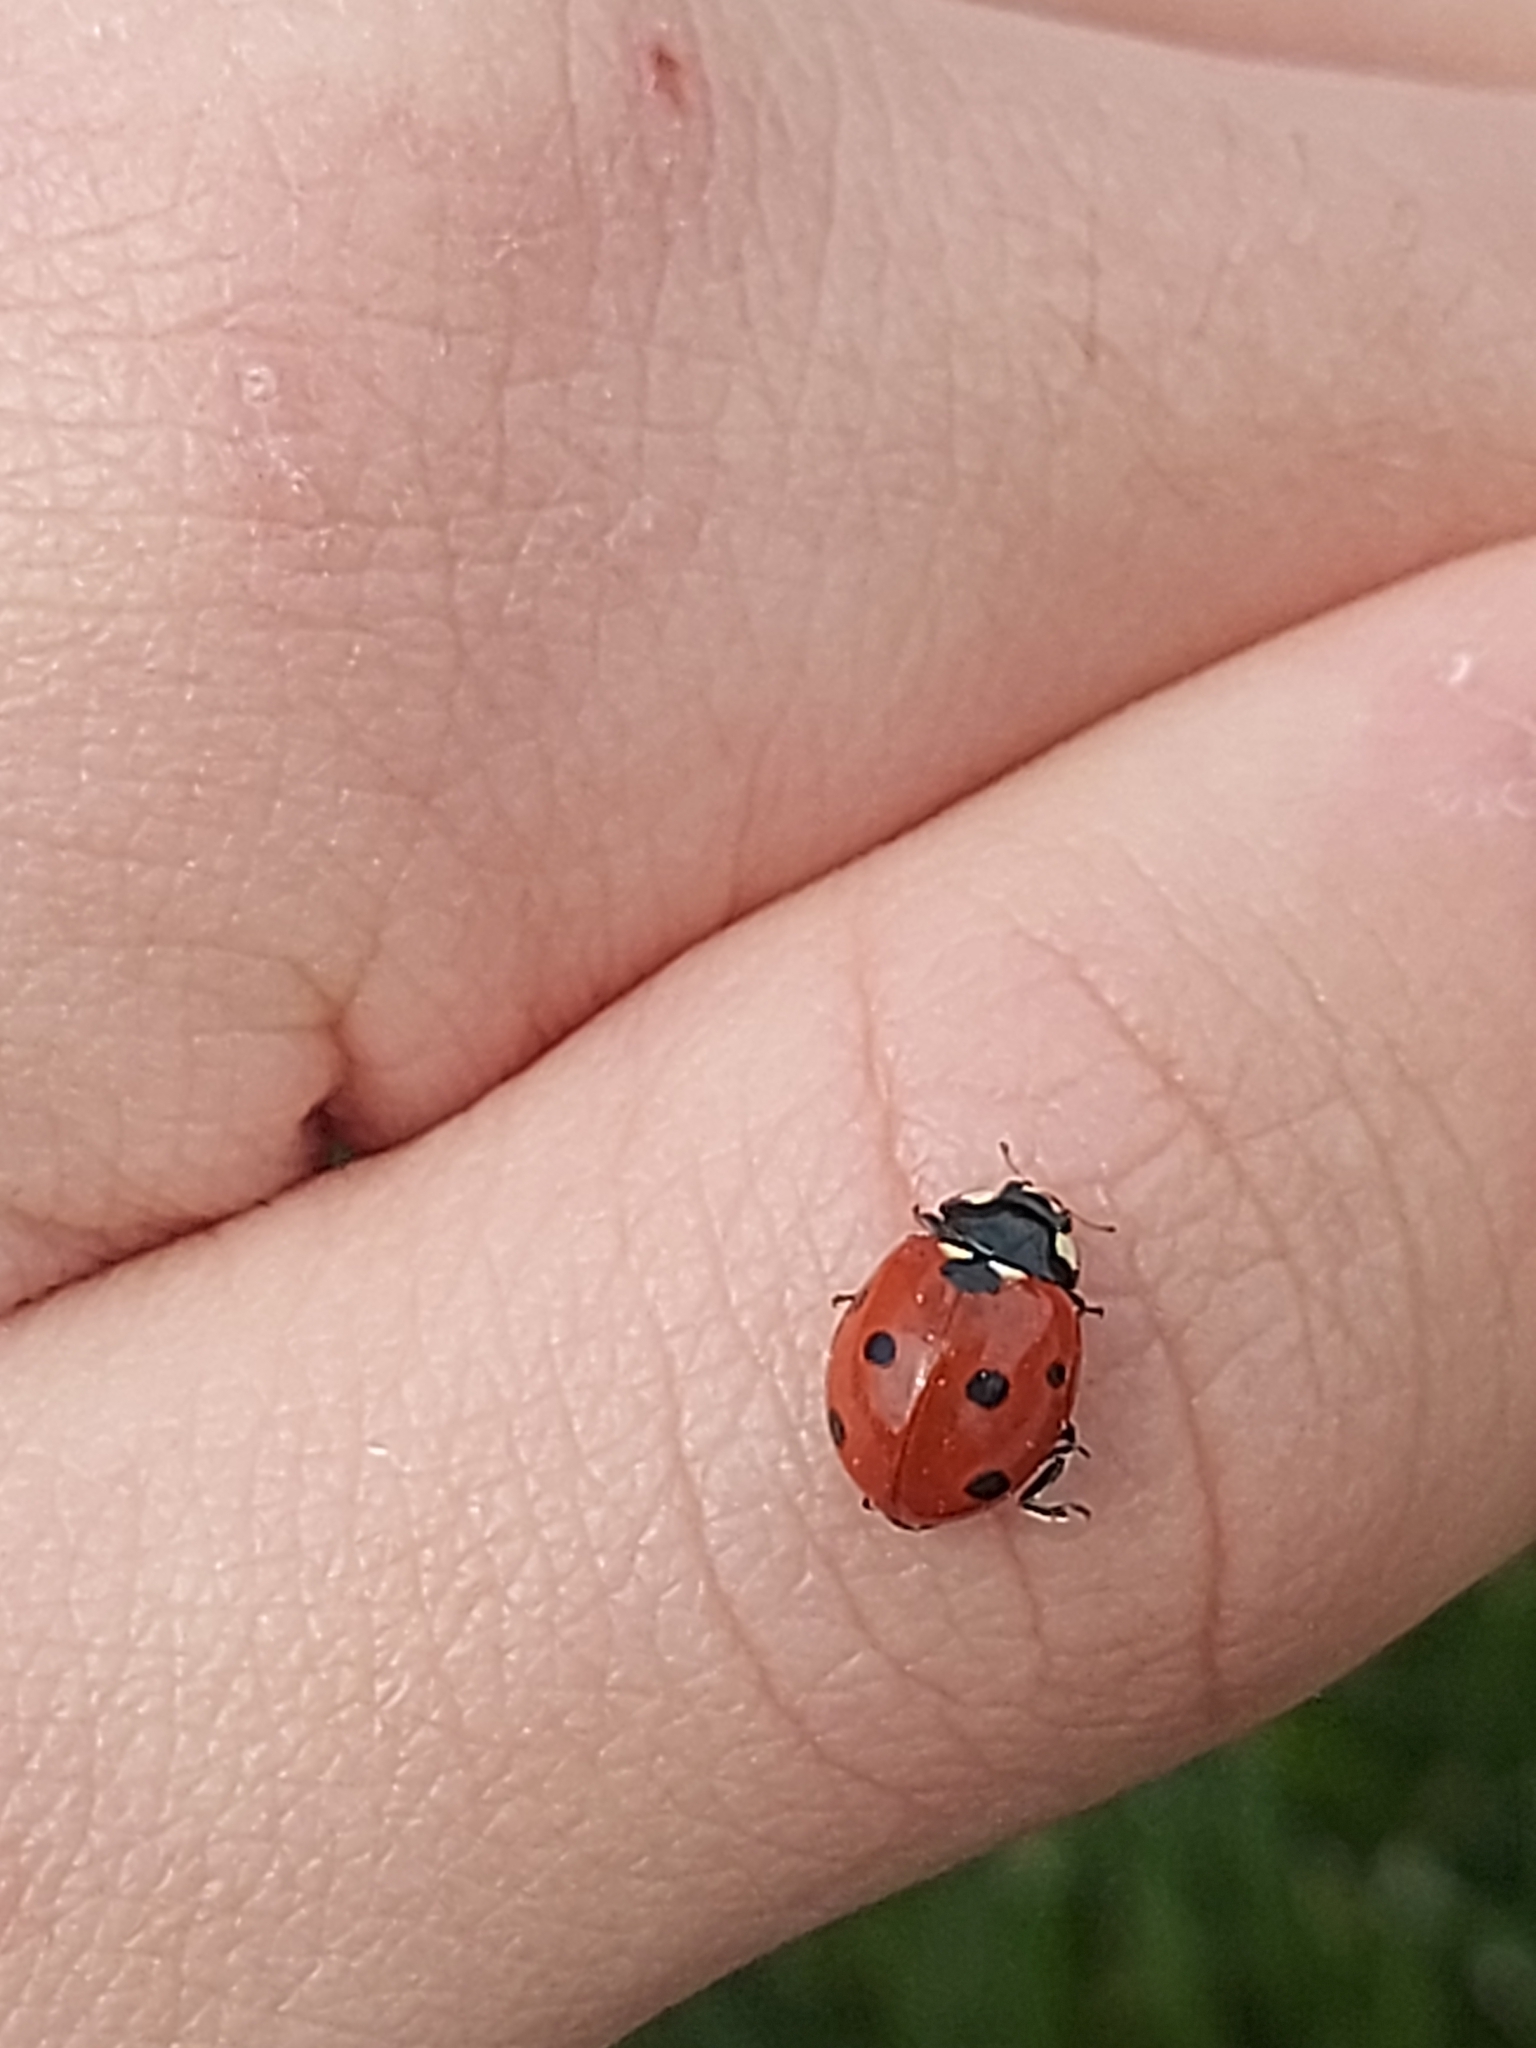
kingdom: Animalia
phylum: Arthropoda
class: Insecta
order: Coleoptera
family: Coccinellidae
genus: Coccinella
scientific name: Coccinella septempunctata
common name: Sevenspotted lady beetle
